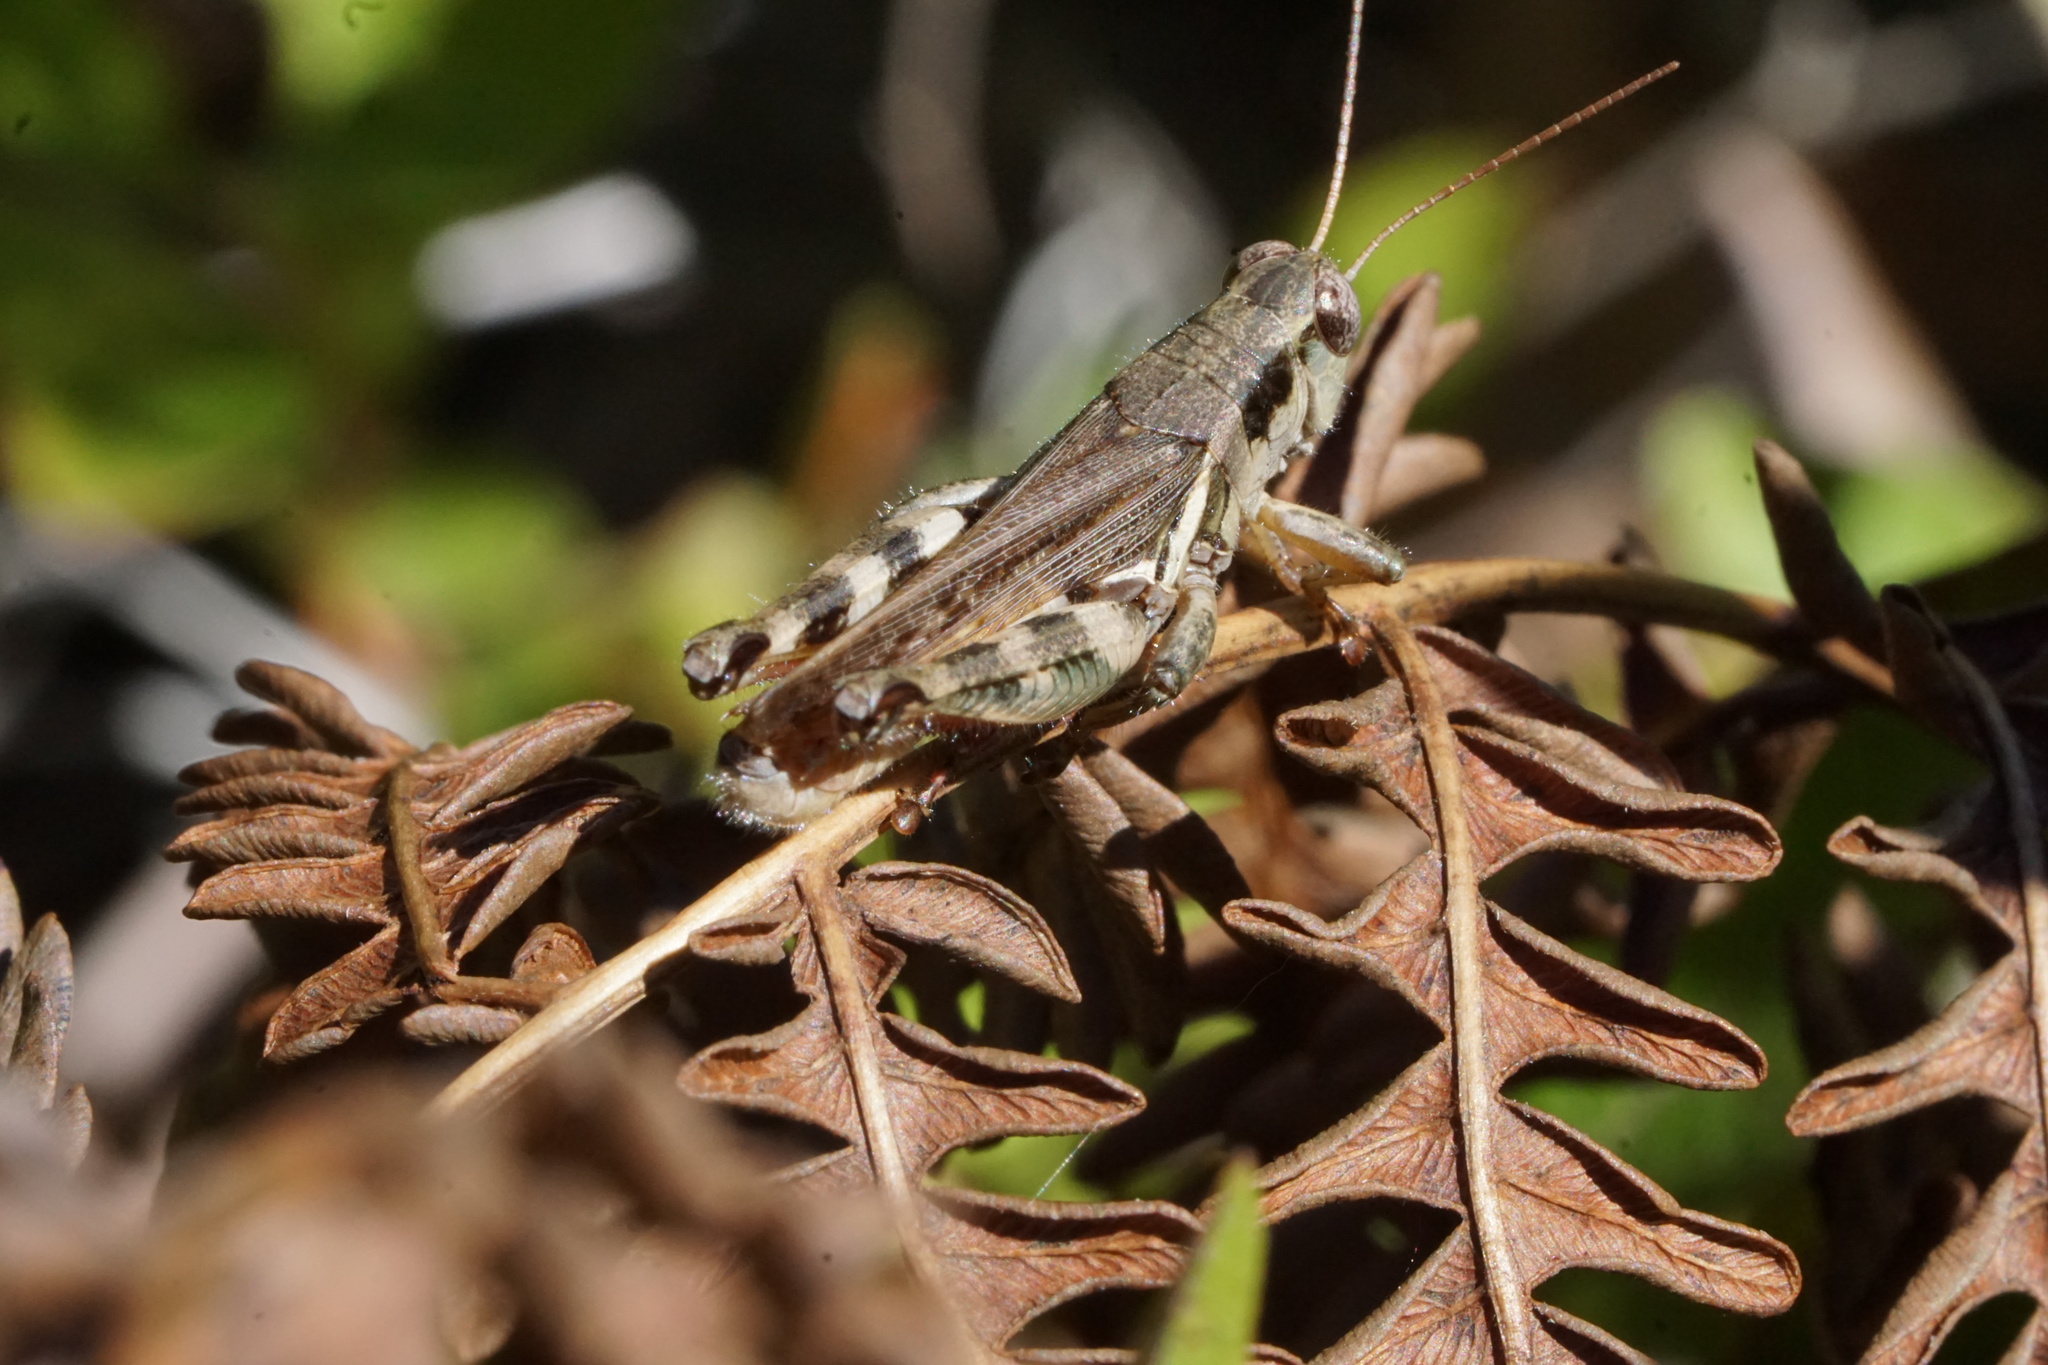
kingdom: Animalia
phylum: Arthropoda
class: Insecta
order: Orthoptera
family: Acrididae
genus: Melanoplus
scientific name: Melanoplus keeleri
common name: Keeler grasshopper
